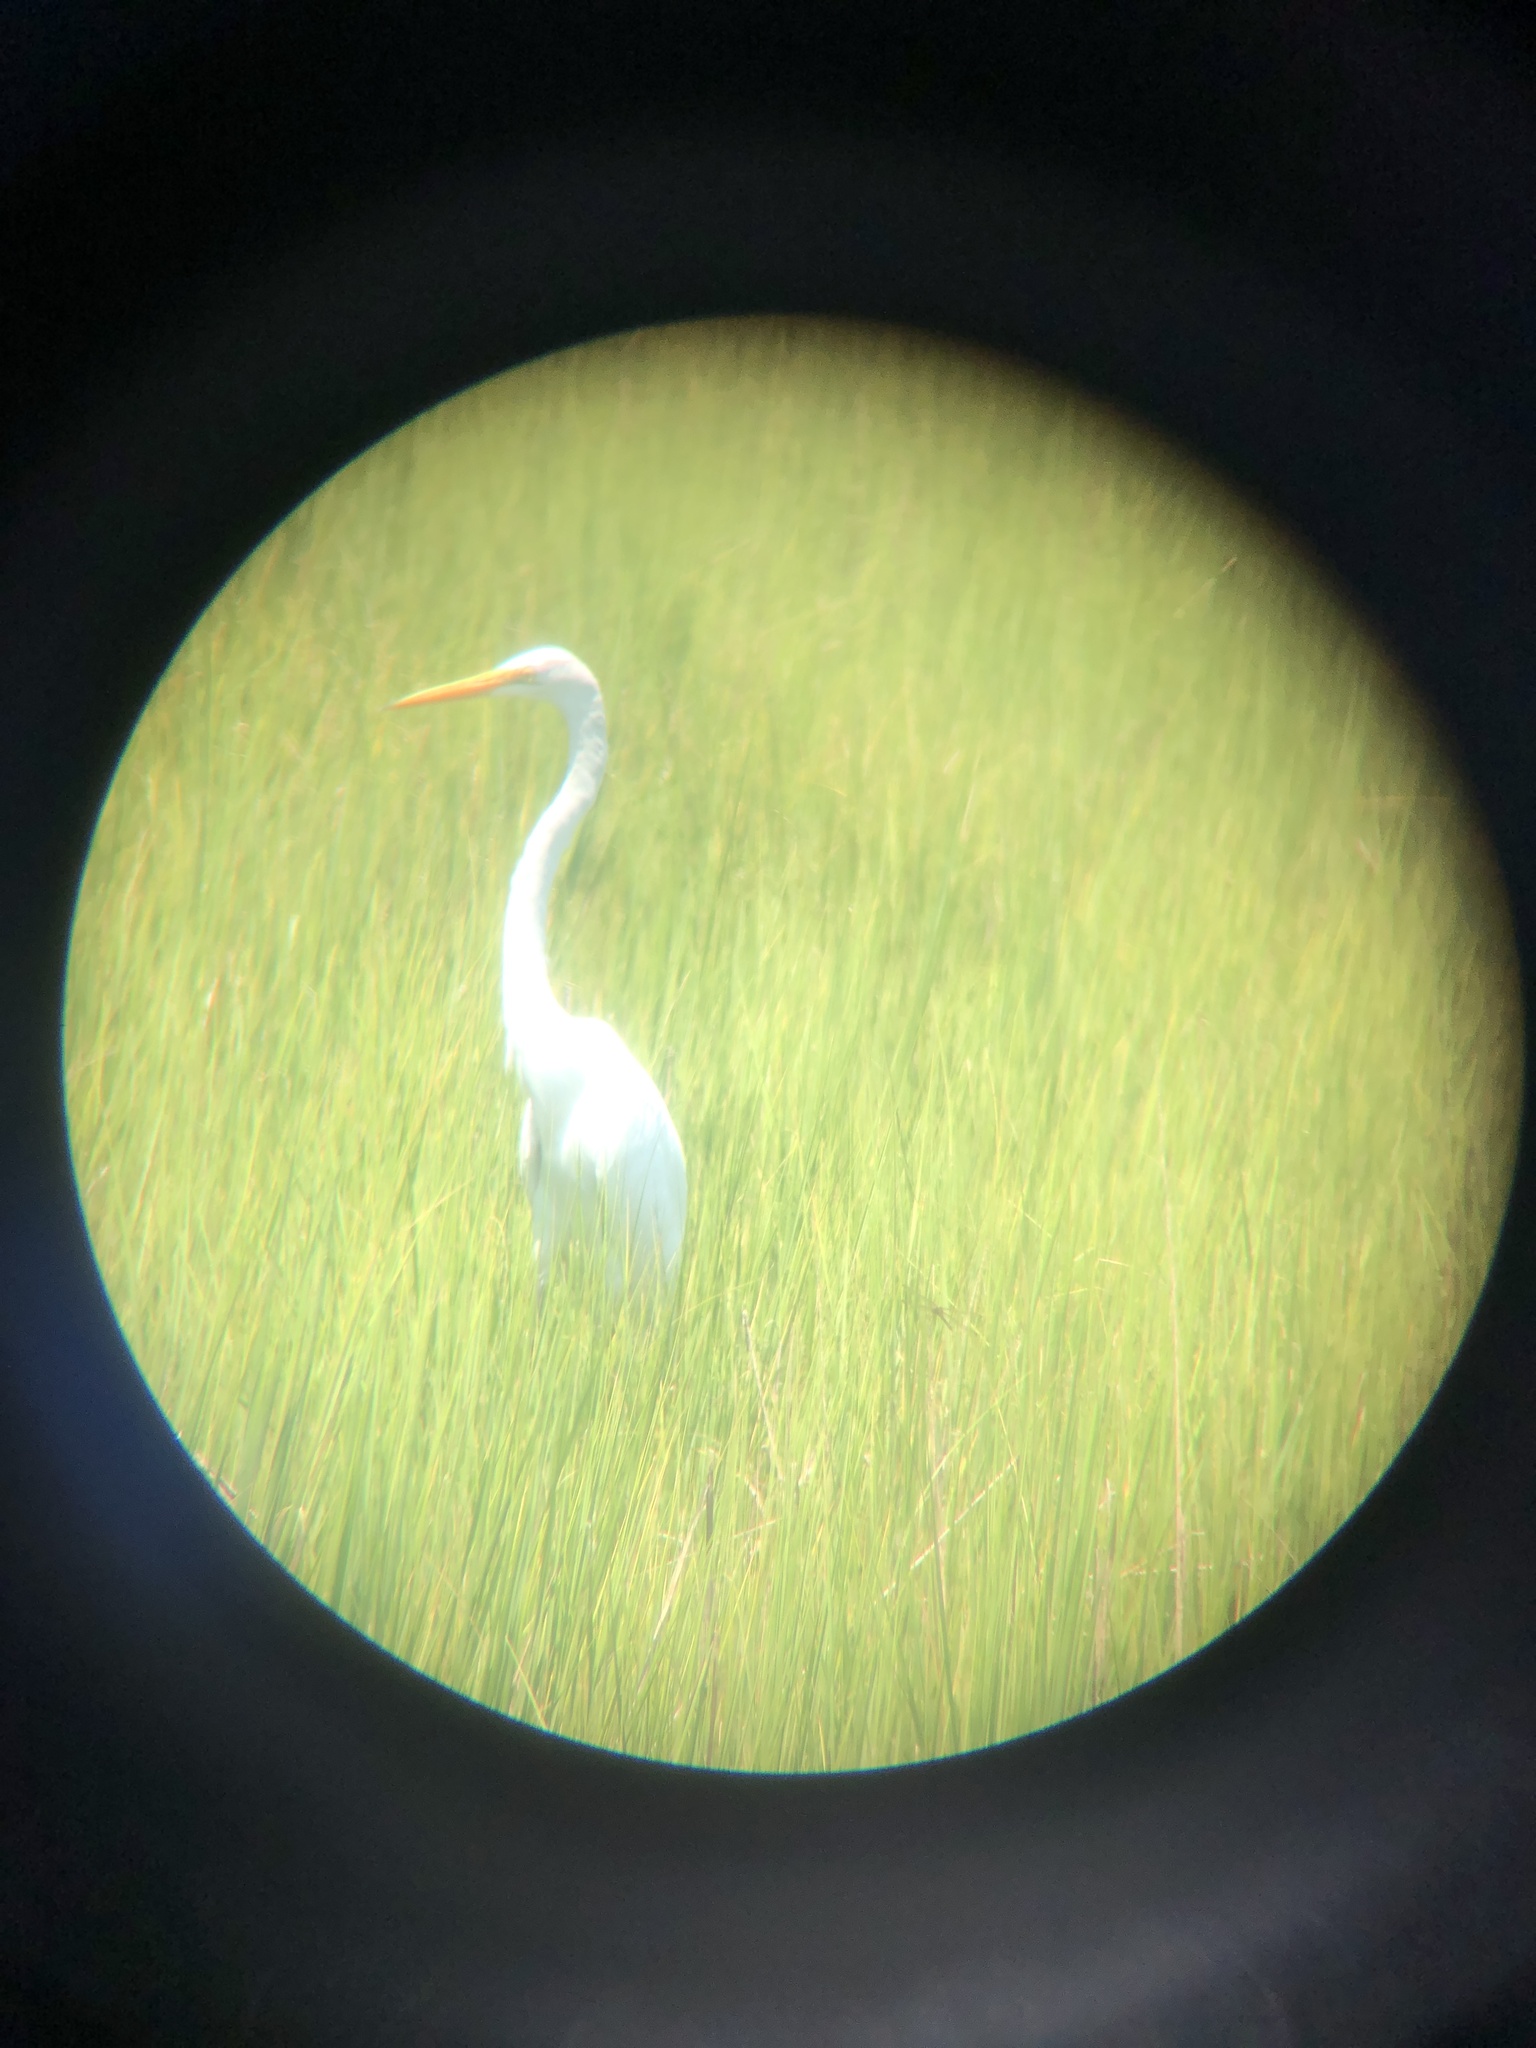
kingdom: Animalia
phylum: Chordata
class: Aves
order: Pelecaniformes
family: Ardeidae
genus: Ardea
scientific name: Ardea alba
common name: Great egret
